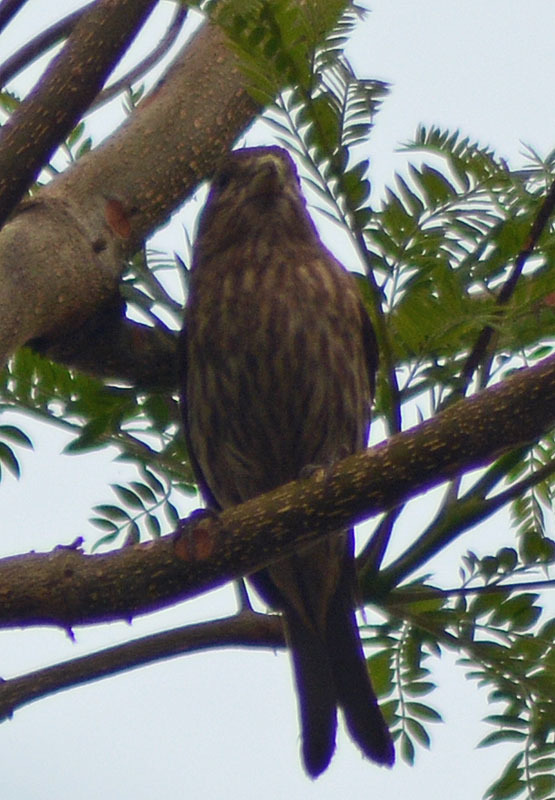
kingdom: Animalia
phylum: Chordata
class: Aves
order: Passeriformes
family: Fringillidae
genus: Haemorhous
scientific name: Haemorhous mexicanus
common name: House finch
